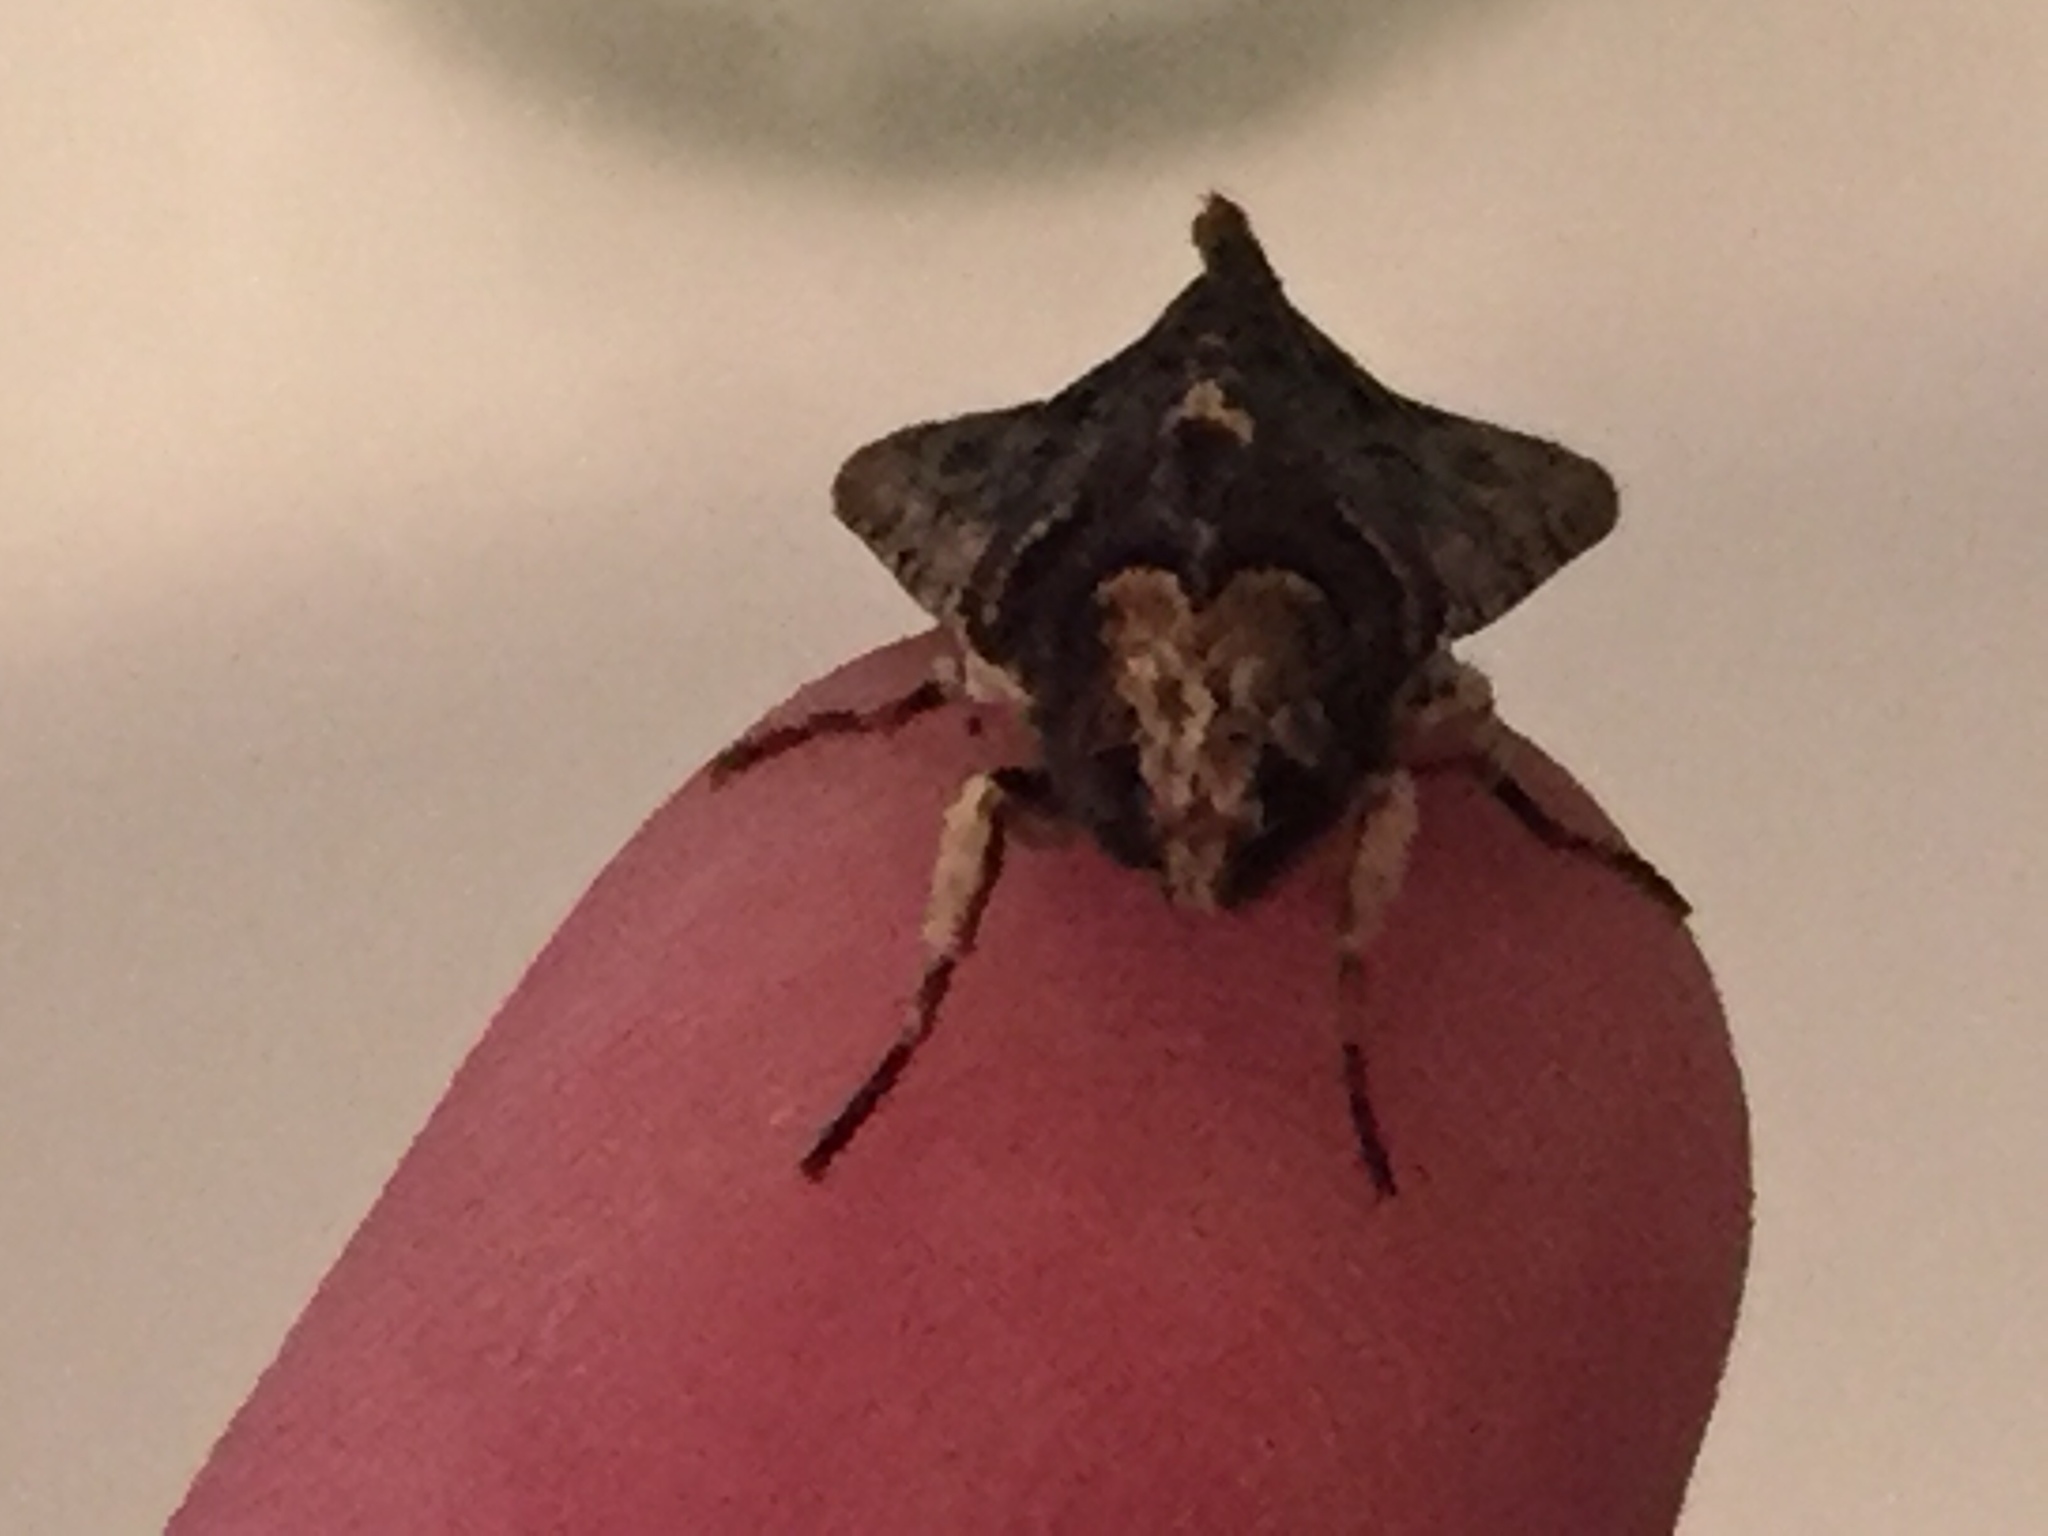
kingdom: Animalia
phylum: Arthropoda
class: Insecta
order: Lepidoptera
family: Noctuidae
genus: Meterana
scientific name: Meterana alcyone
